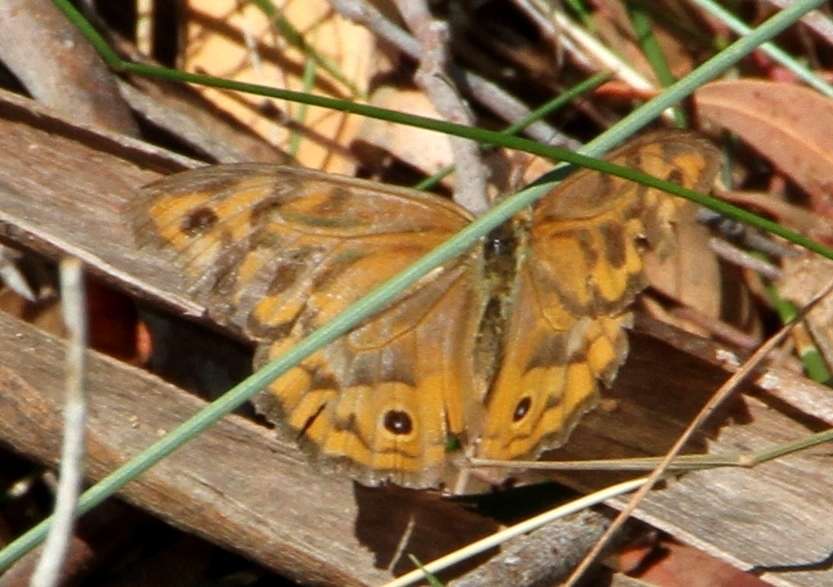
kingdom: Animalia
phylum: Arthropoda
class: Insecta
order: Lepidoptera
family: Nymphalidae
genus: Heteronympha
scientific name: Heteronympha merope
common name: Common brown
